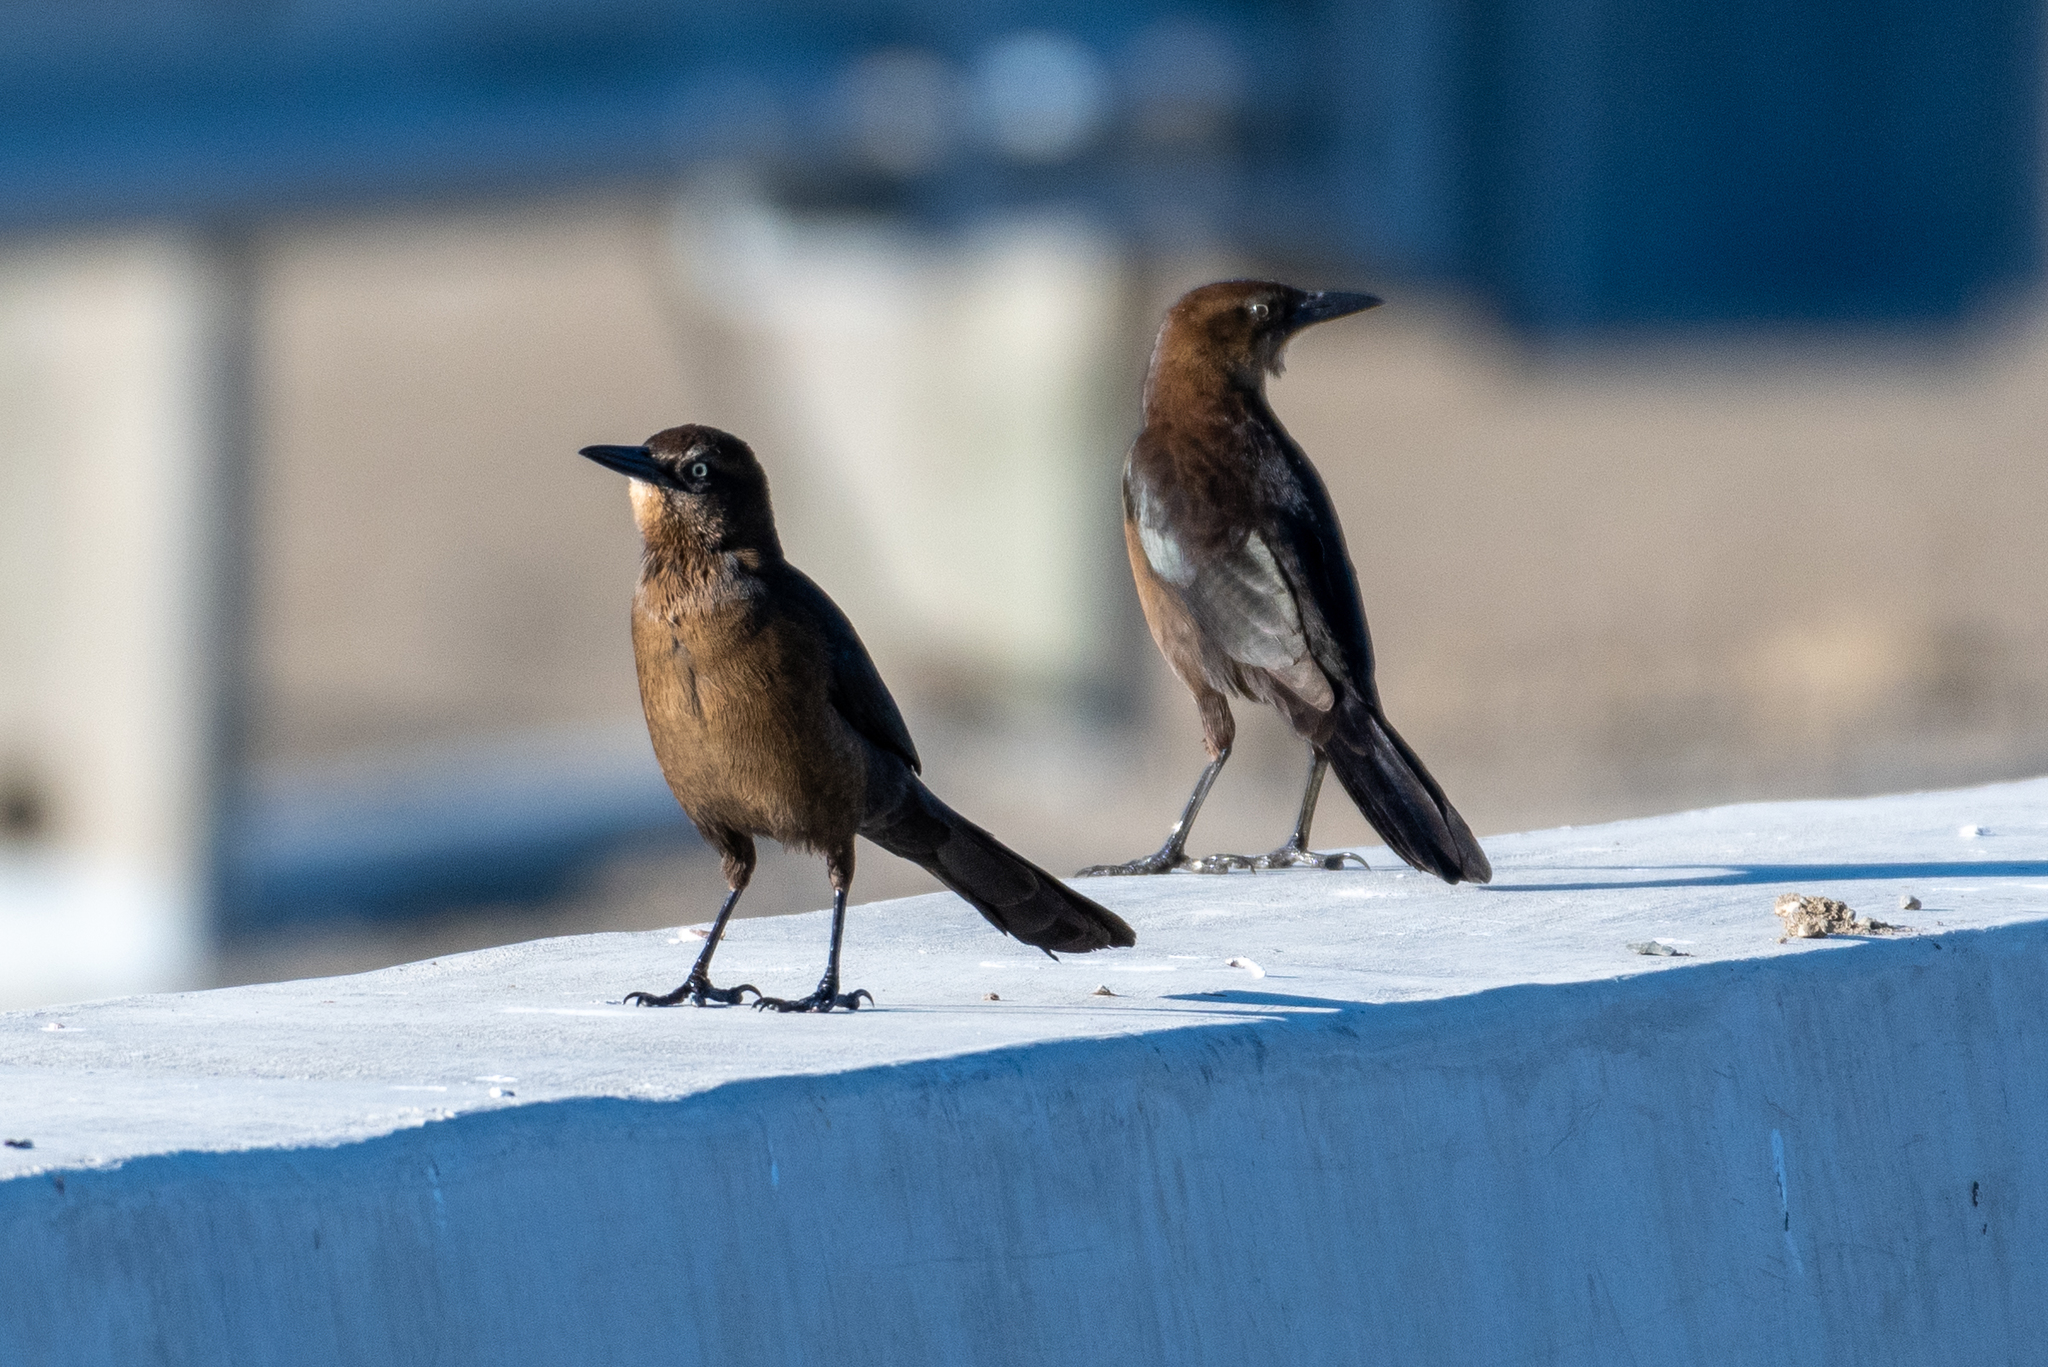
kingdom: Animalia
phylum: Chordata
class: Aves
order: Passeriformes
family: Icteridae
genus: Quiscalus
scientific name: Quiscalus mexicanus
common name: Great-tailed grackle
